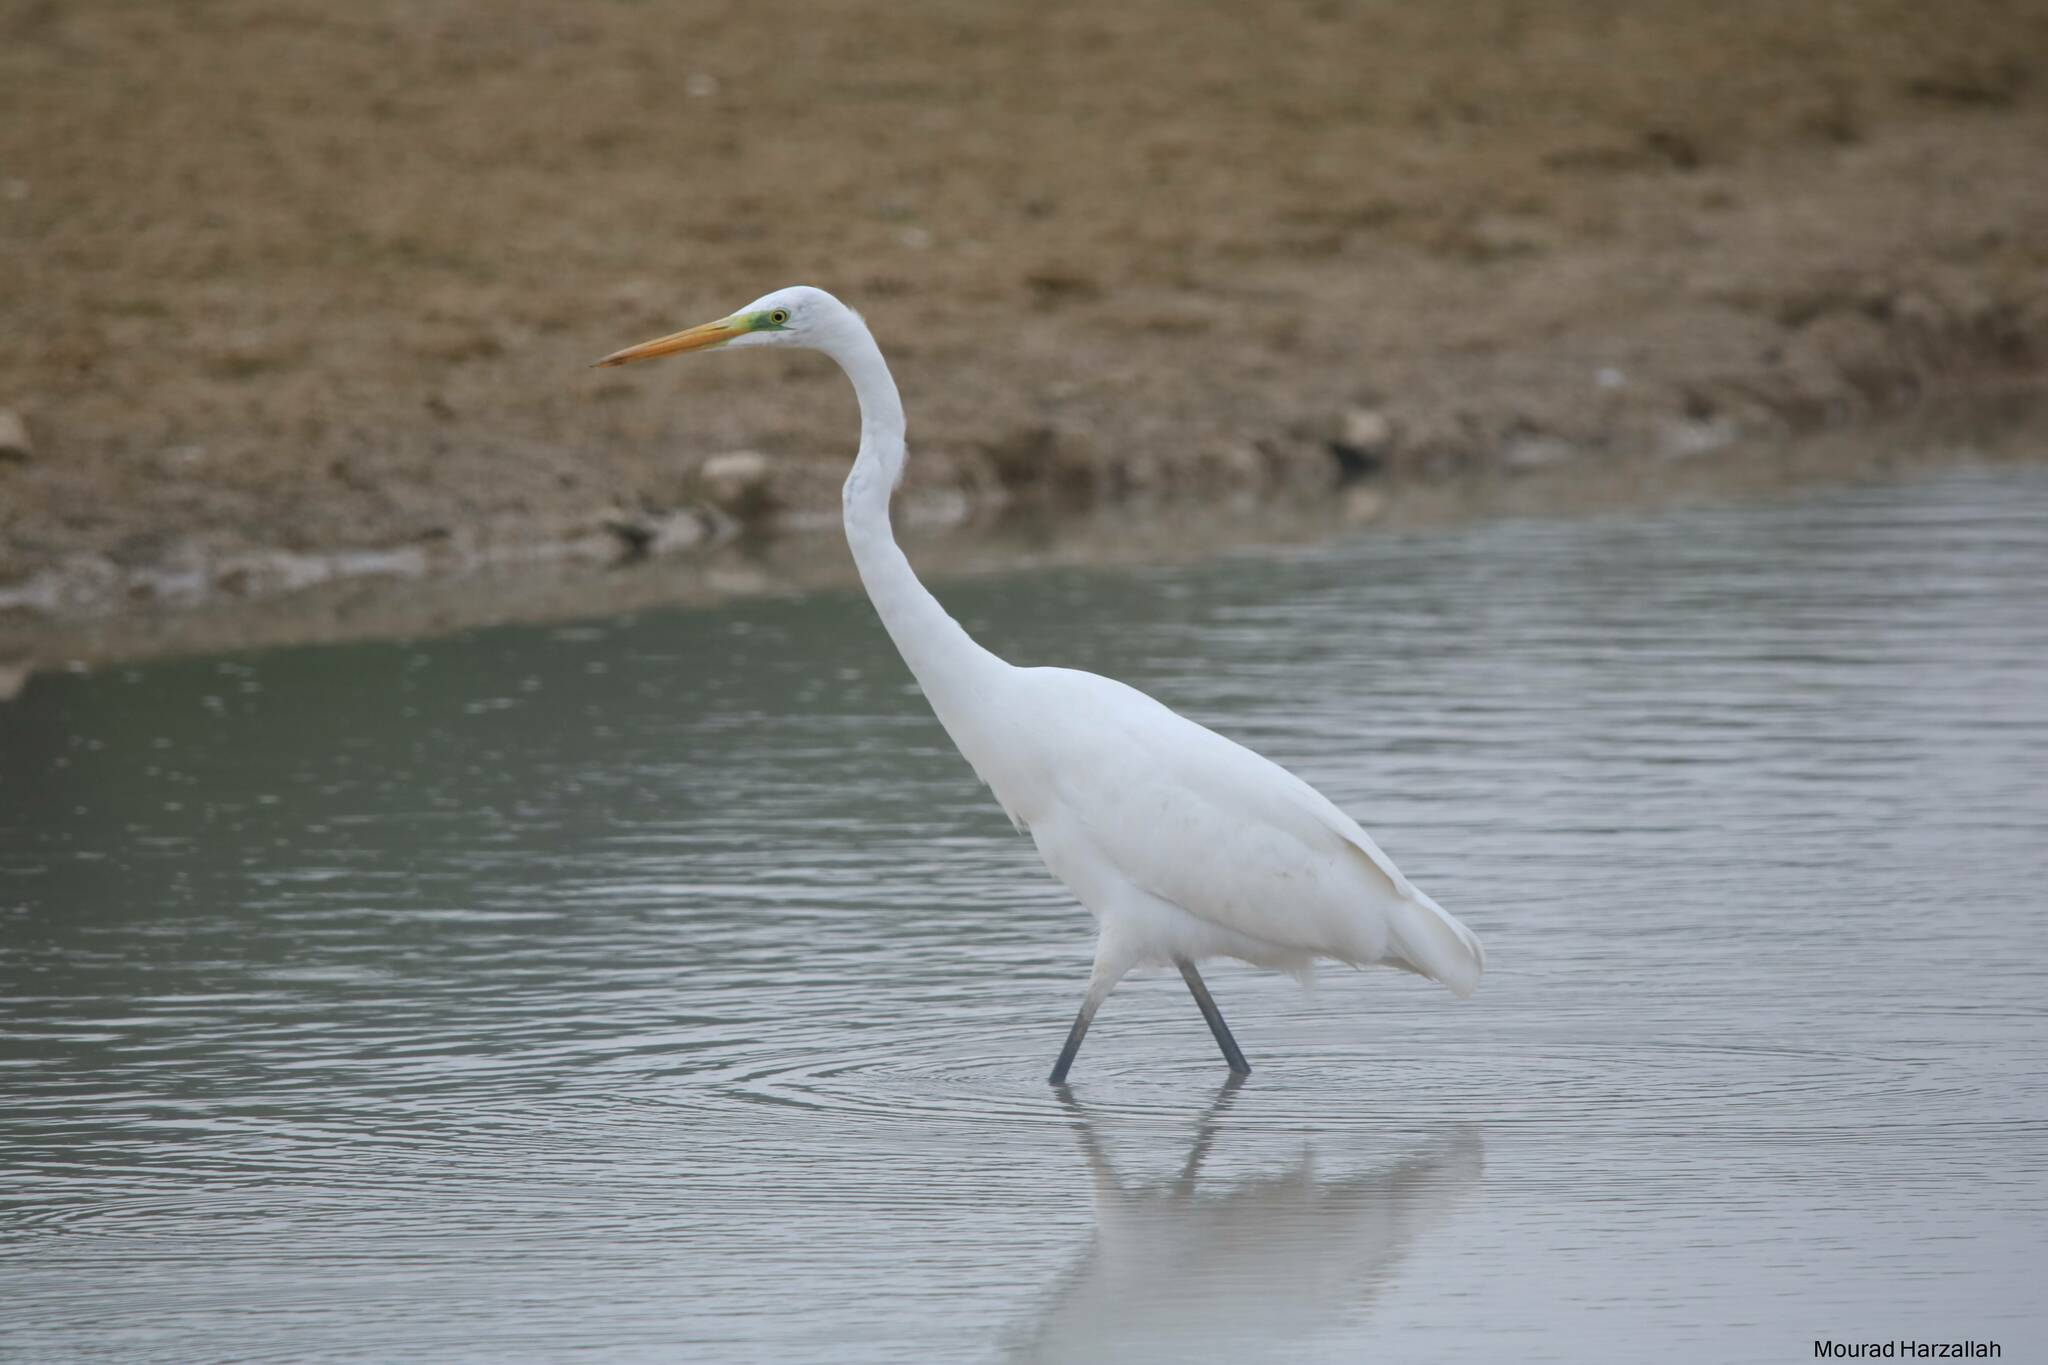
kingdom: Animalia
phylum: Chordata
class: Aves
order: Pelecaniformes
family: Ardeidae
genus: Ardea
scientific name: Ardea alba
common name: Great egret
